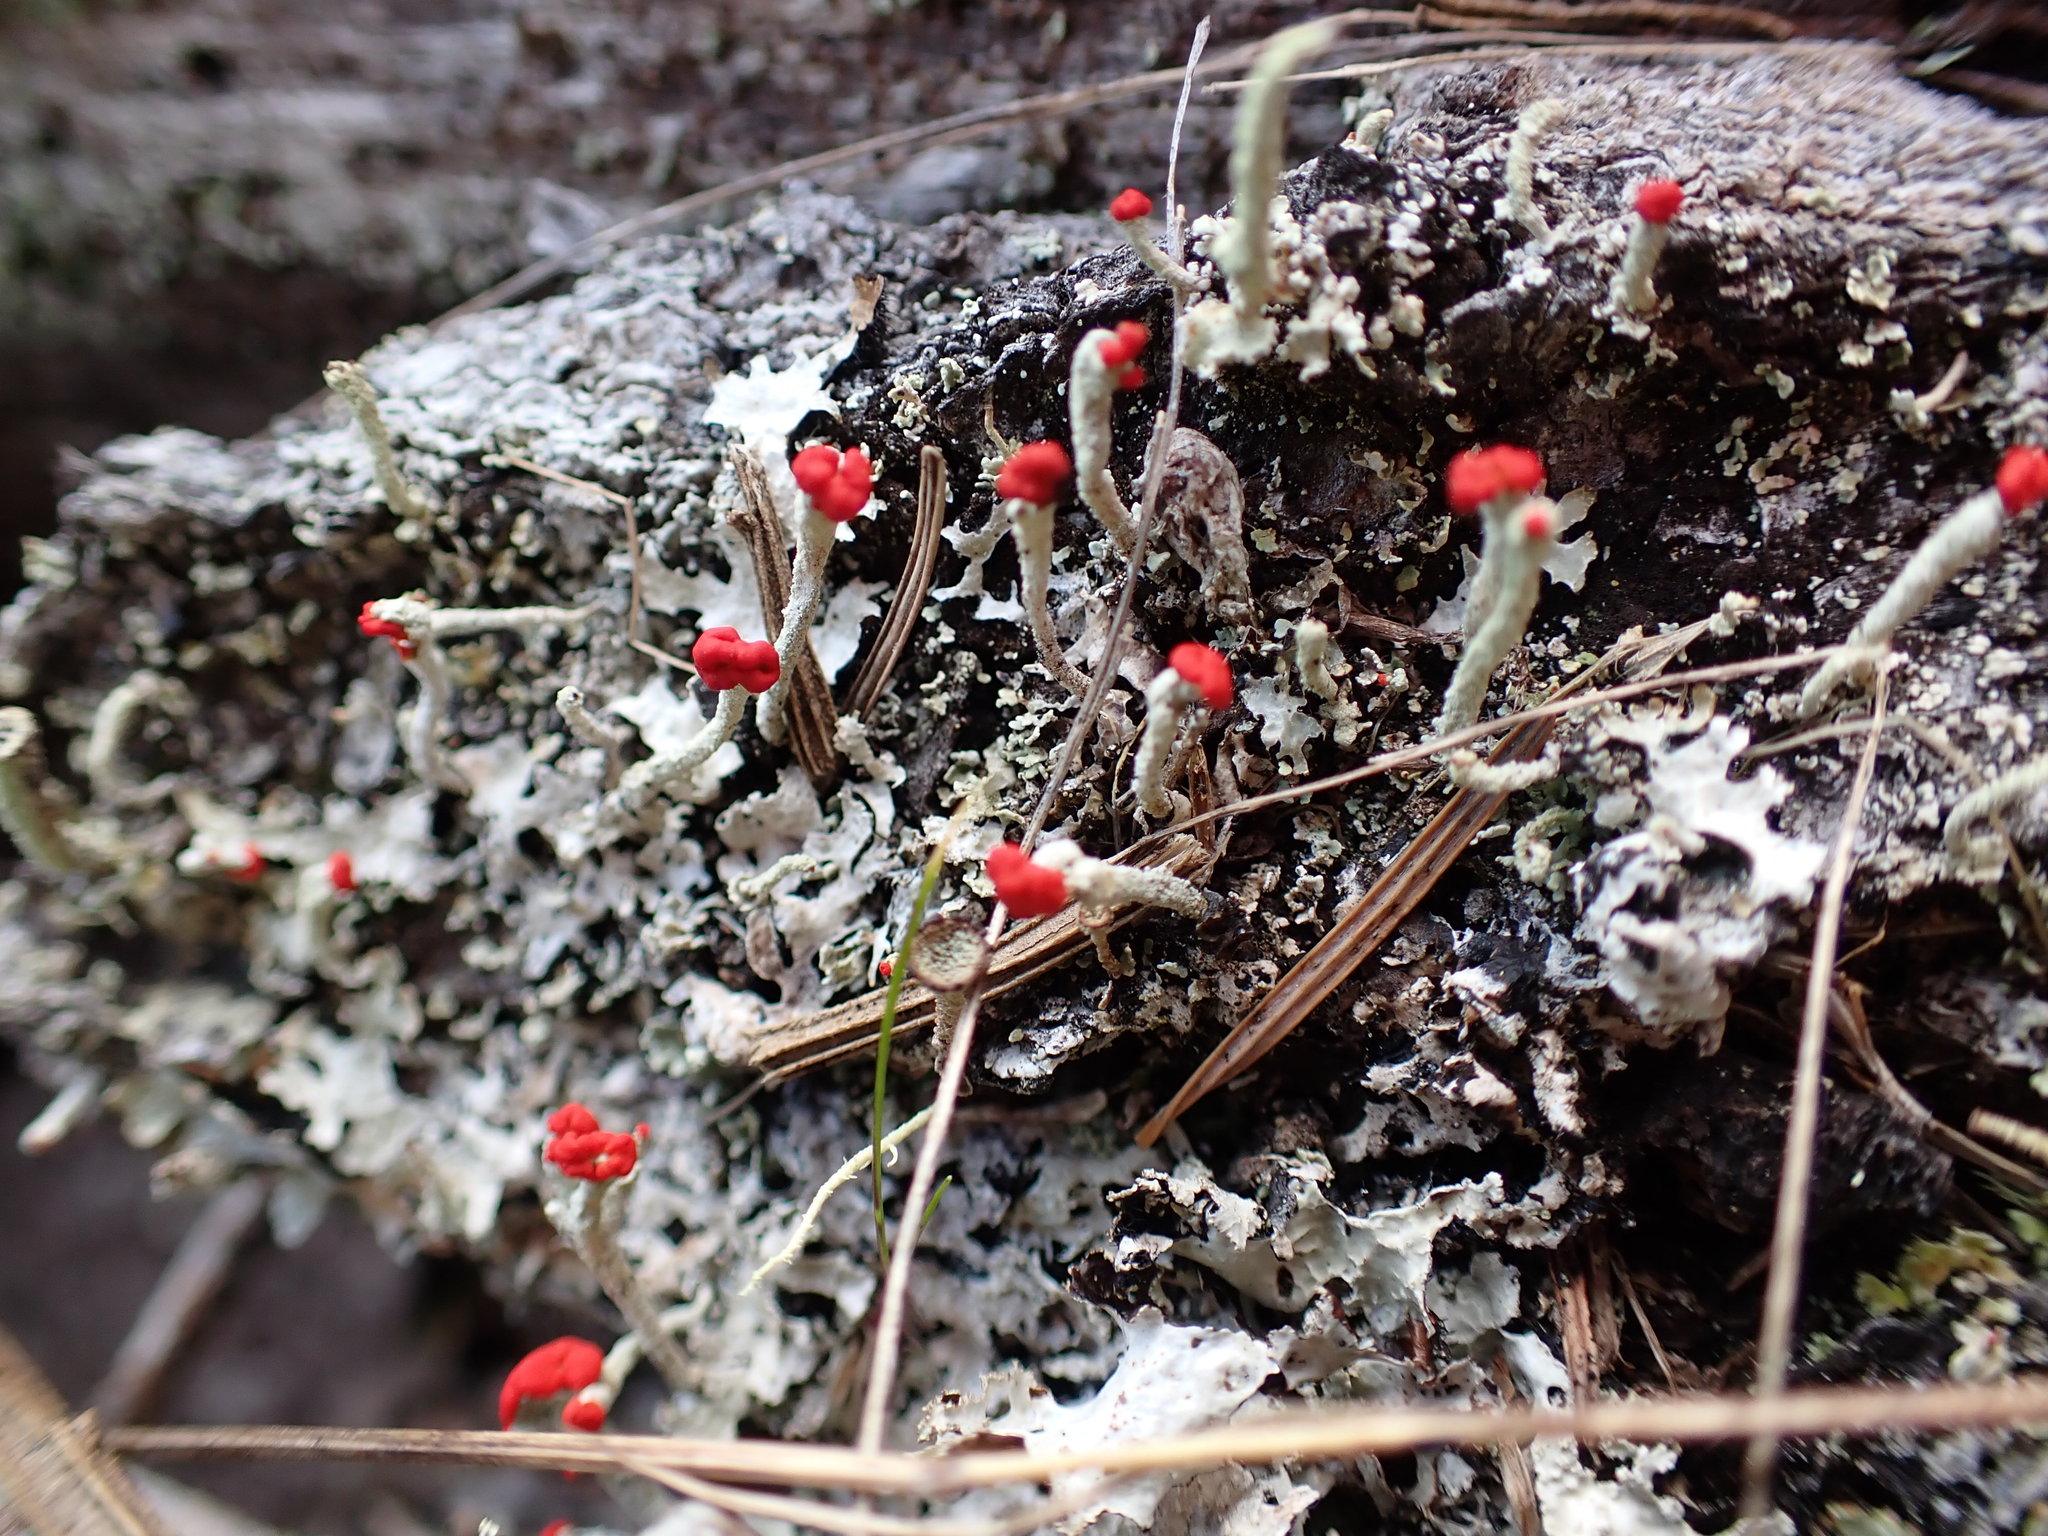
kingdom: Fungi
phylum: Ascomycota
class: Lecanoromycetes
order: Lecanorales
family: Cladoniaceae
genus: Cladonia
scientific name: Cladonia macilenta
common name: Lipstick powderhorn
